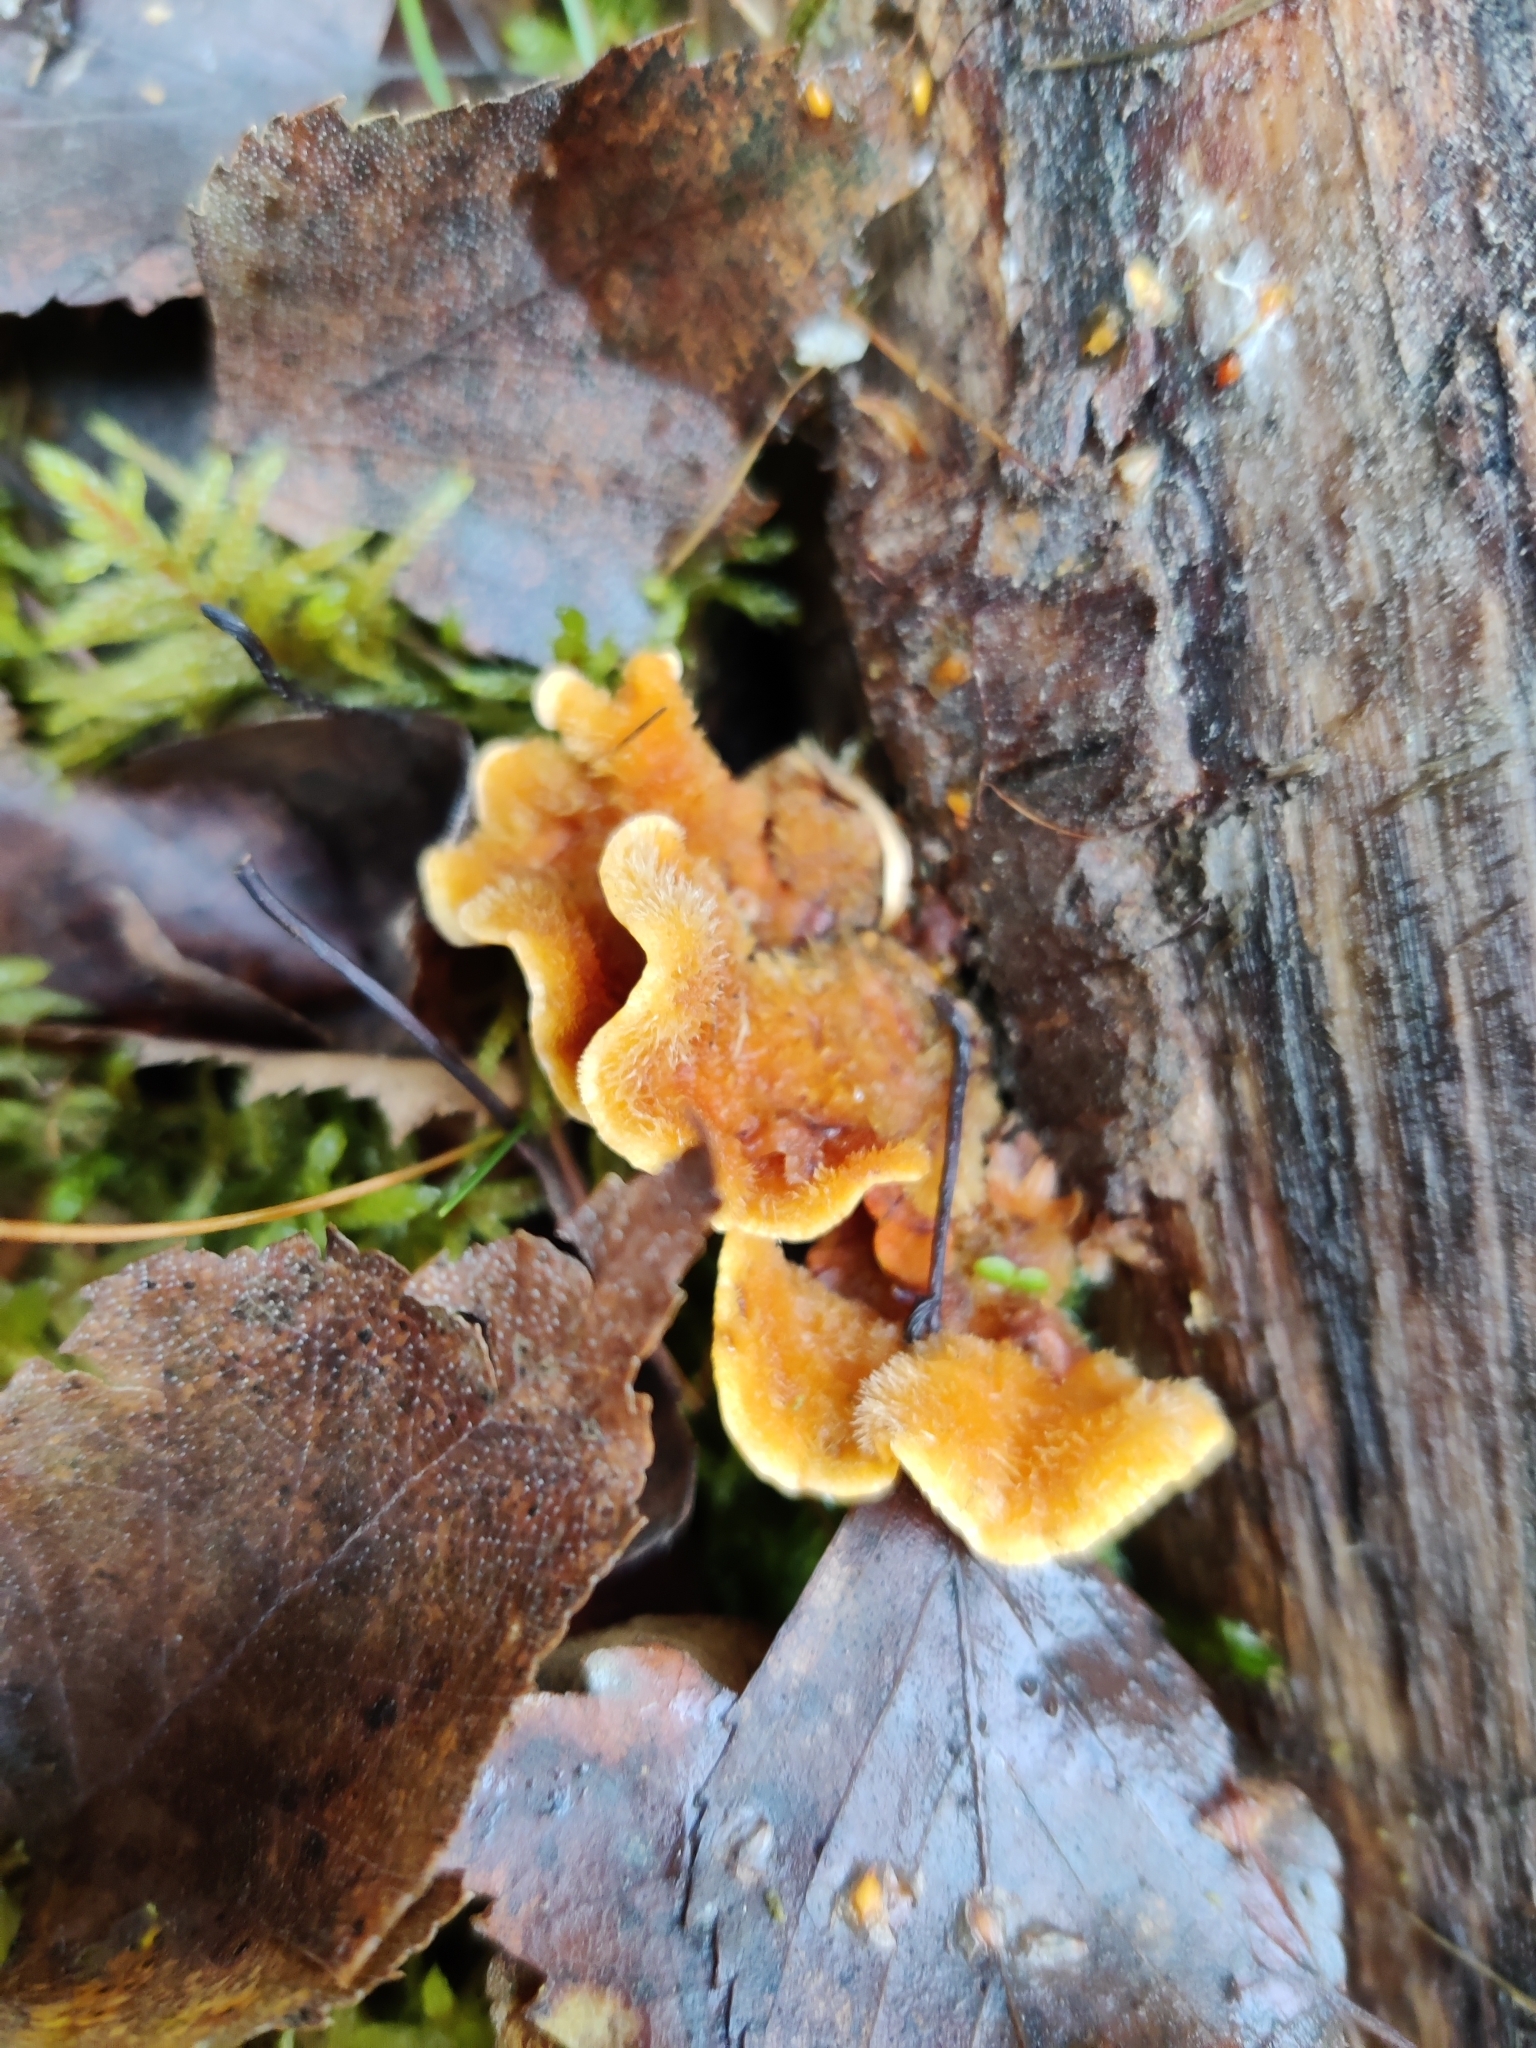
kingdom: Fungi
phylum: Basidiomycota
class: Agaricomycetes
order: Russulales
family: Stereaceae
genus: Stereum
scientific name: Stereum hirsutum
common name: Hairy curtain crust
